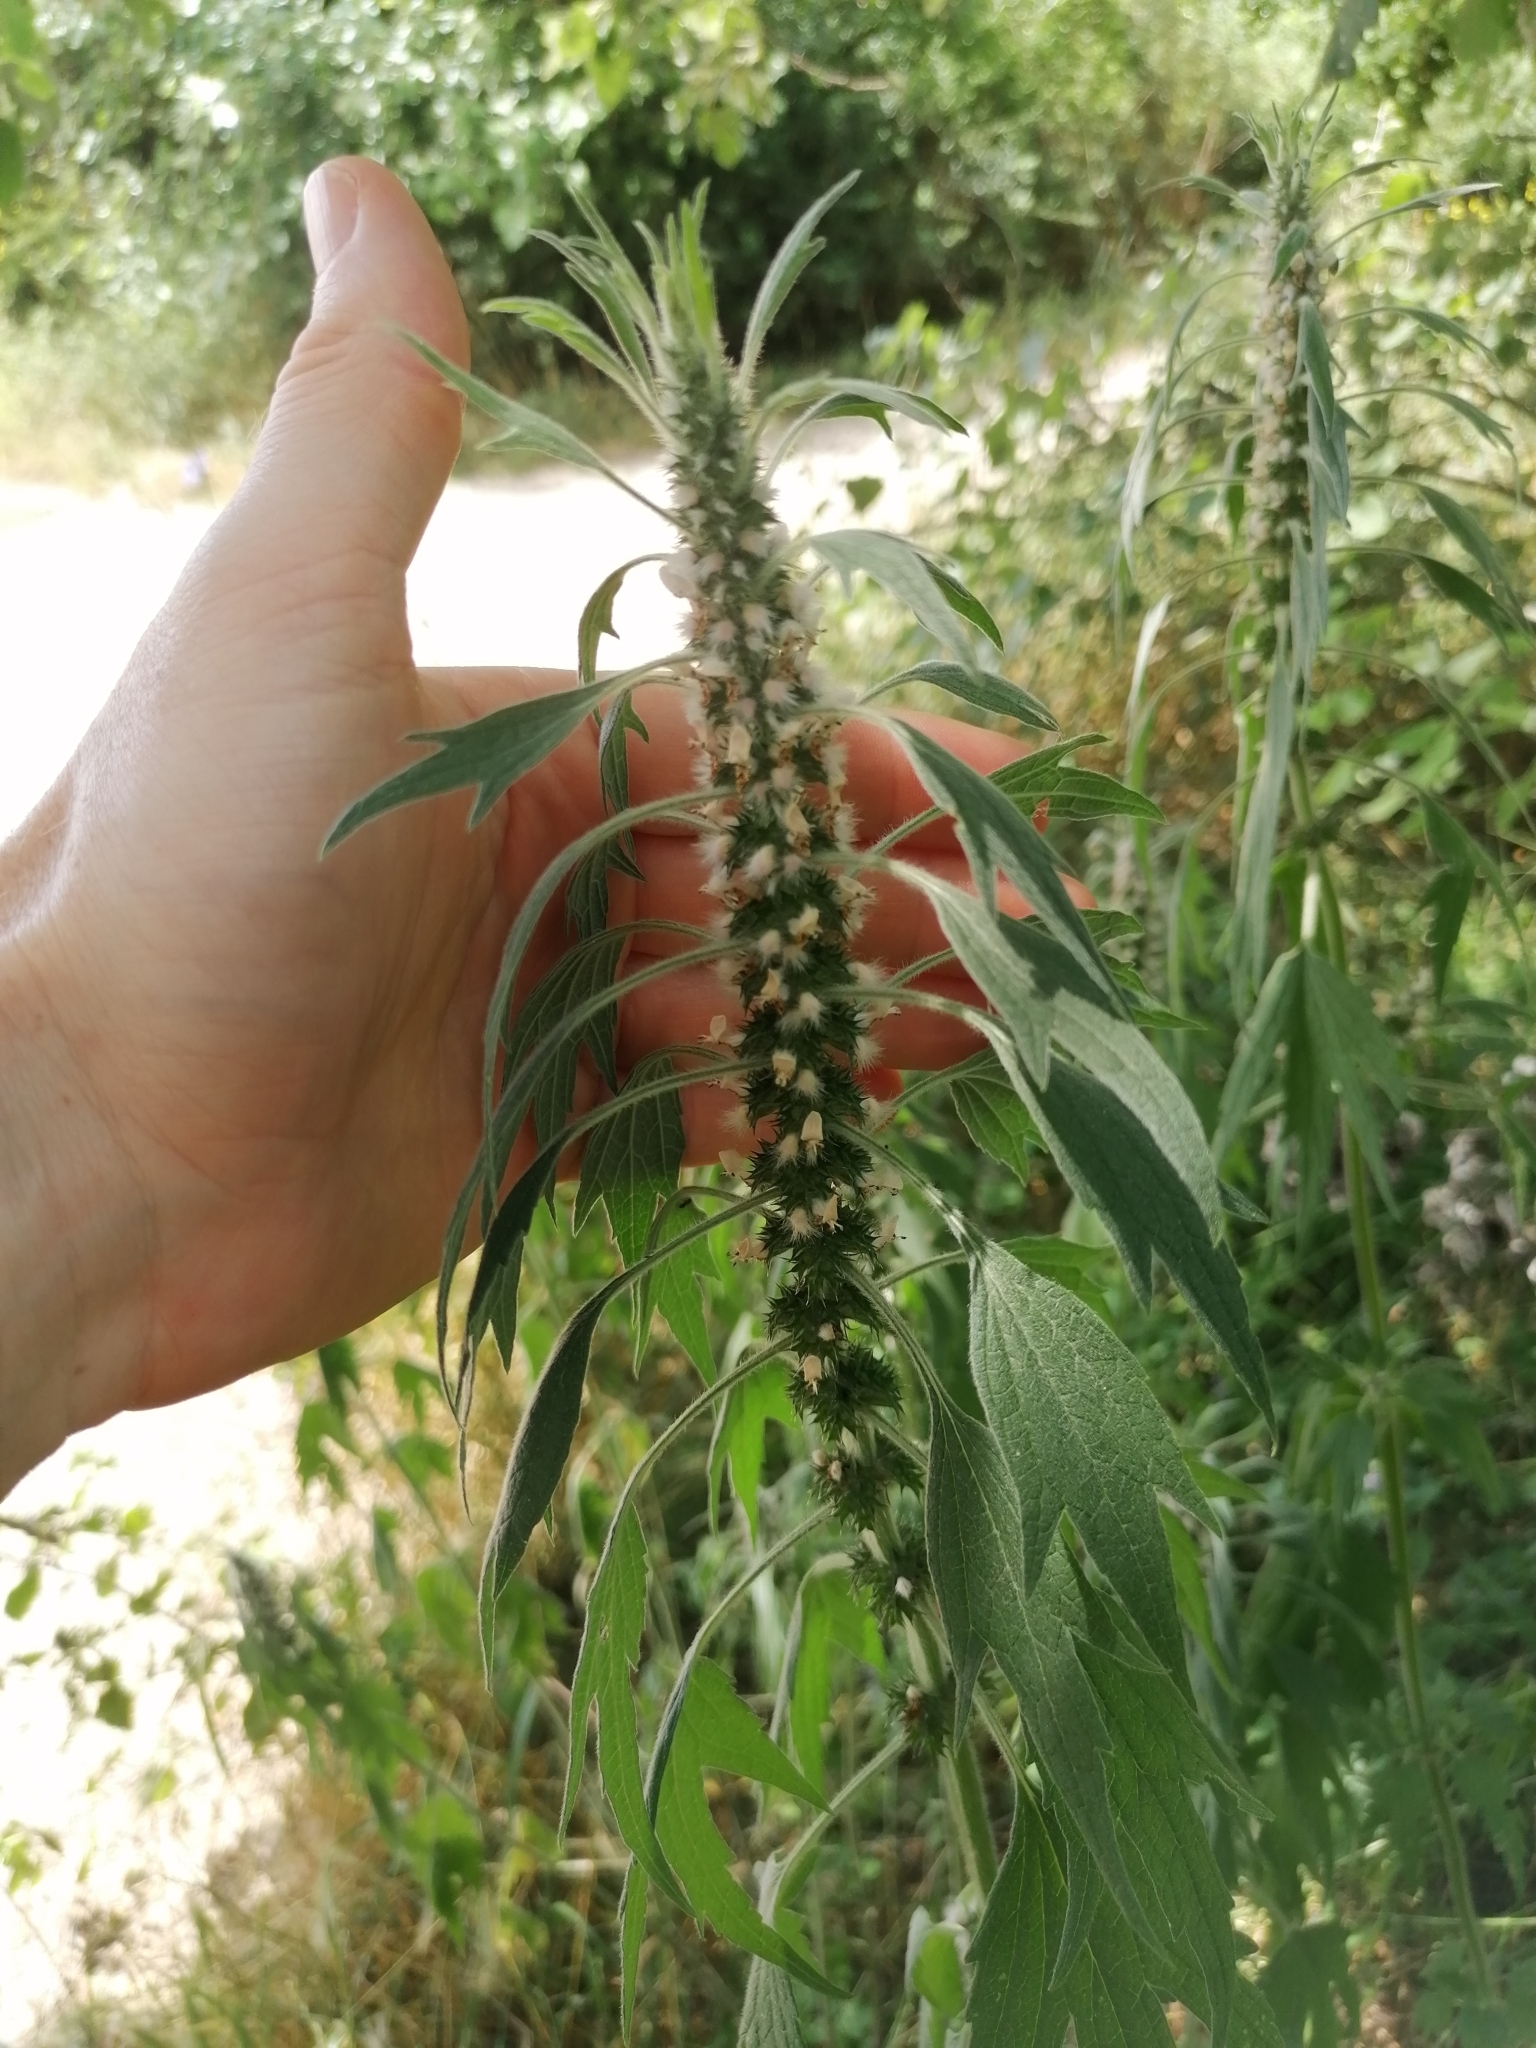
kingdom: Plantae
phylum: Tracheophyta
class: Magnoliopsida
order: Lamiales
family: Lamiaceae
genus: Leonurus
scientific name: Leonurus quinquelobatus
